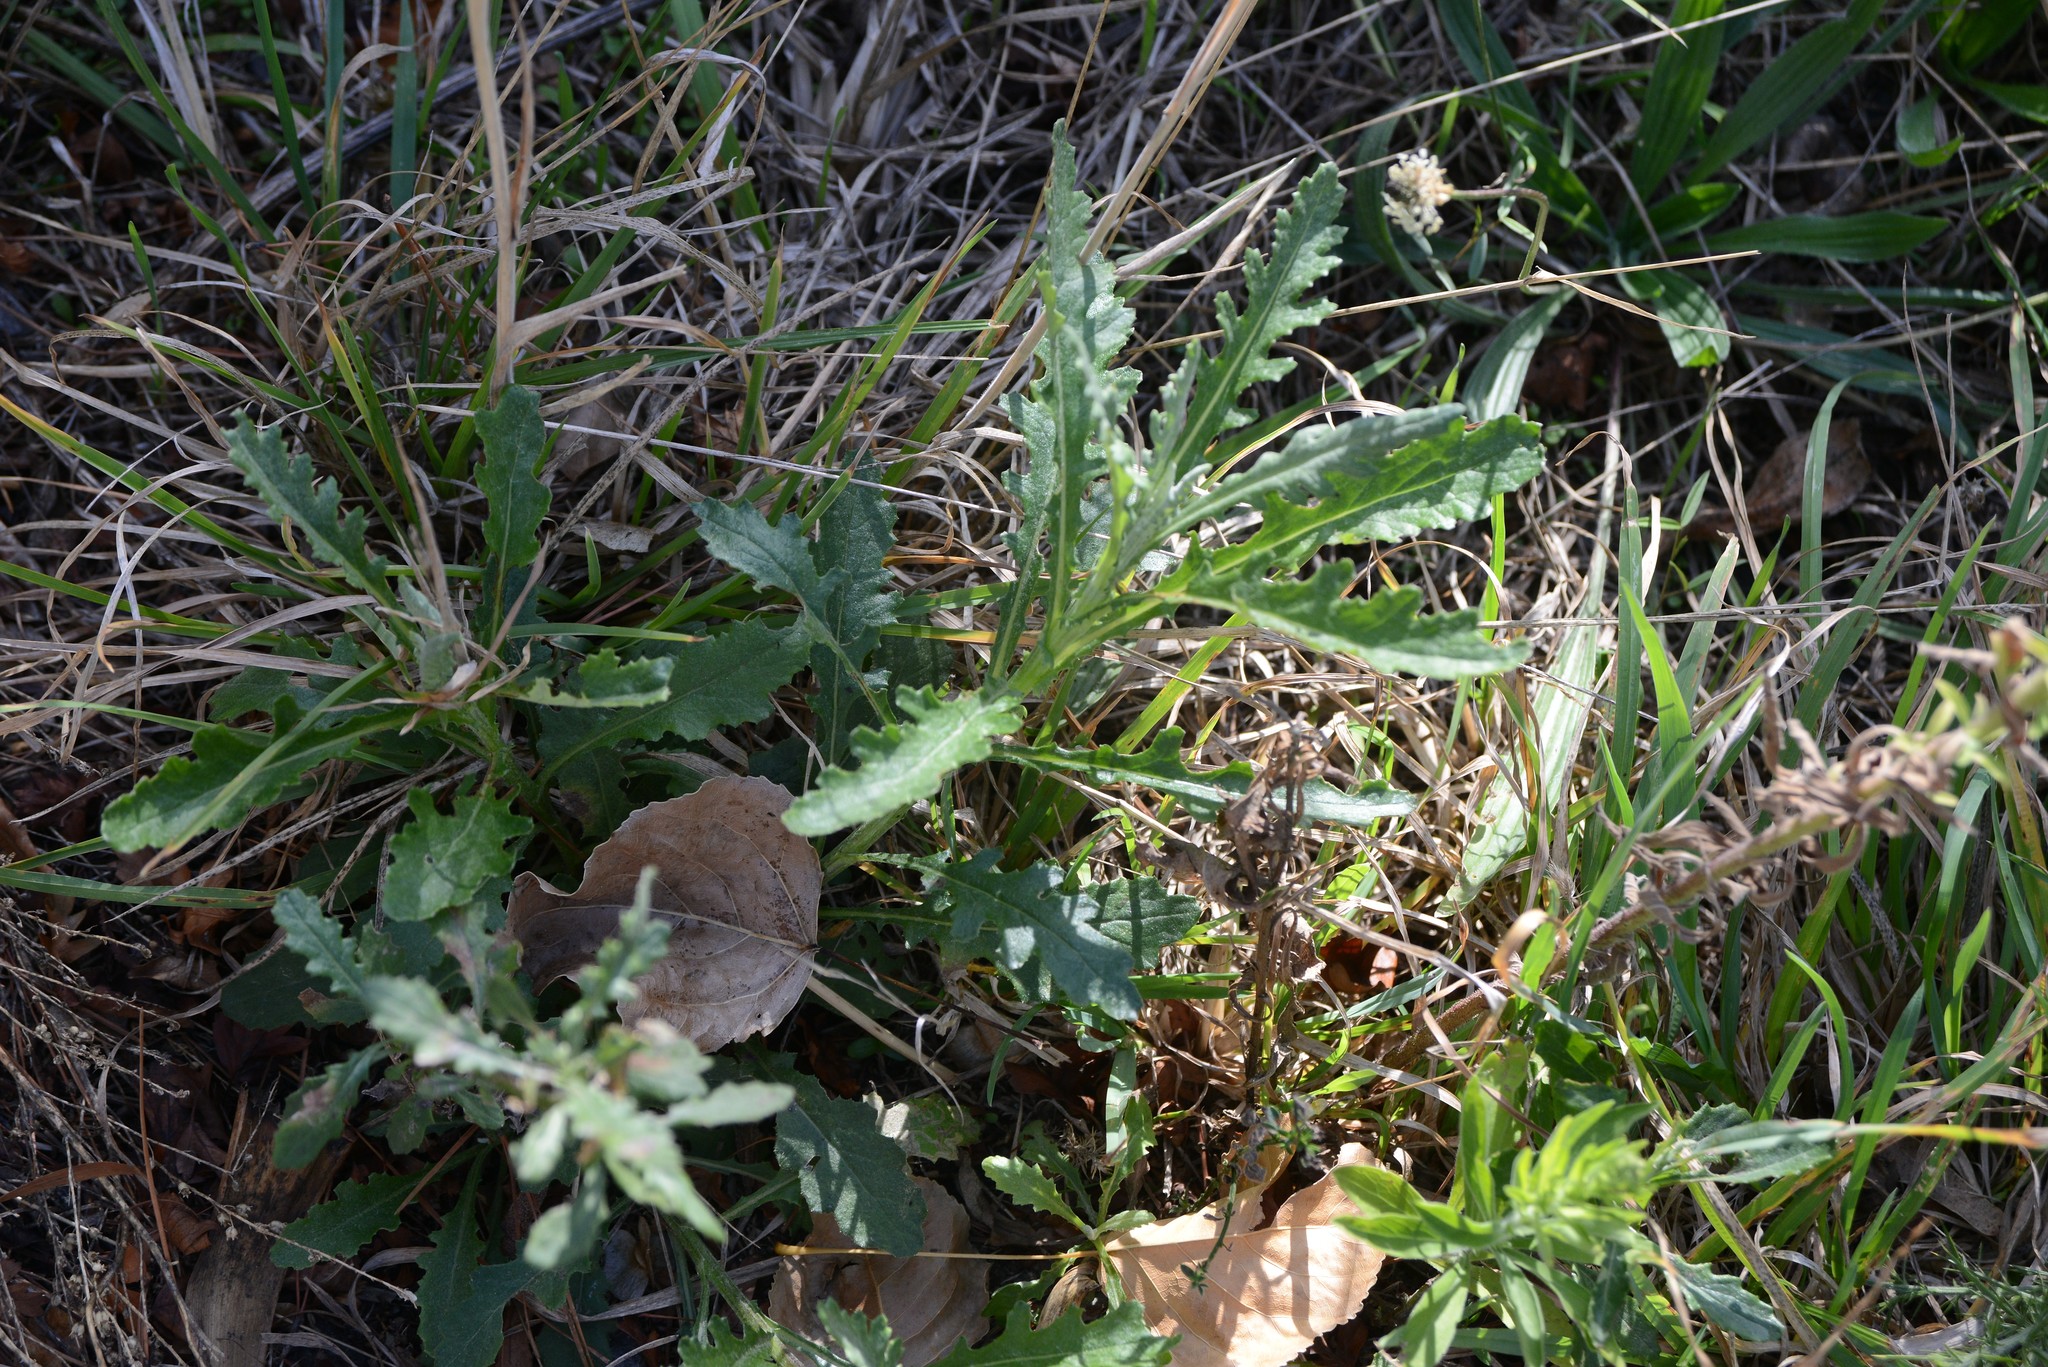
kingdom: Plantae
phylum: Tracheophyta
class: Magnoliopsida
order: Asterales
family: Asteraceae
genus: Senecio
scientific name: Senecio glomeratus
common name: Cutleaf burnweed
